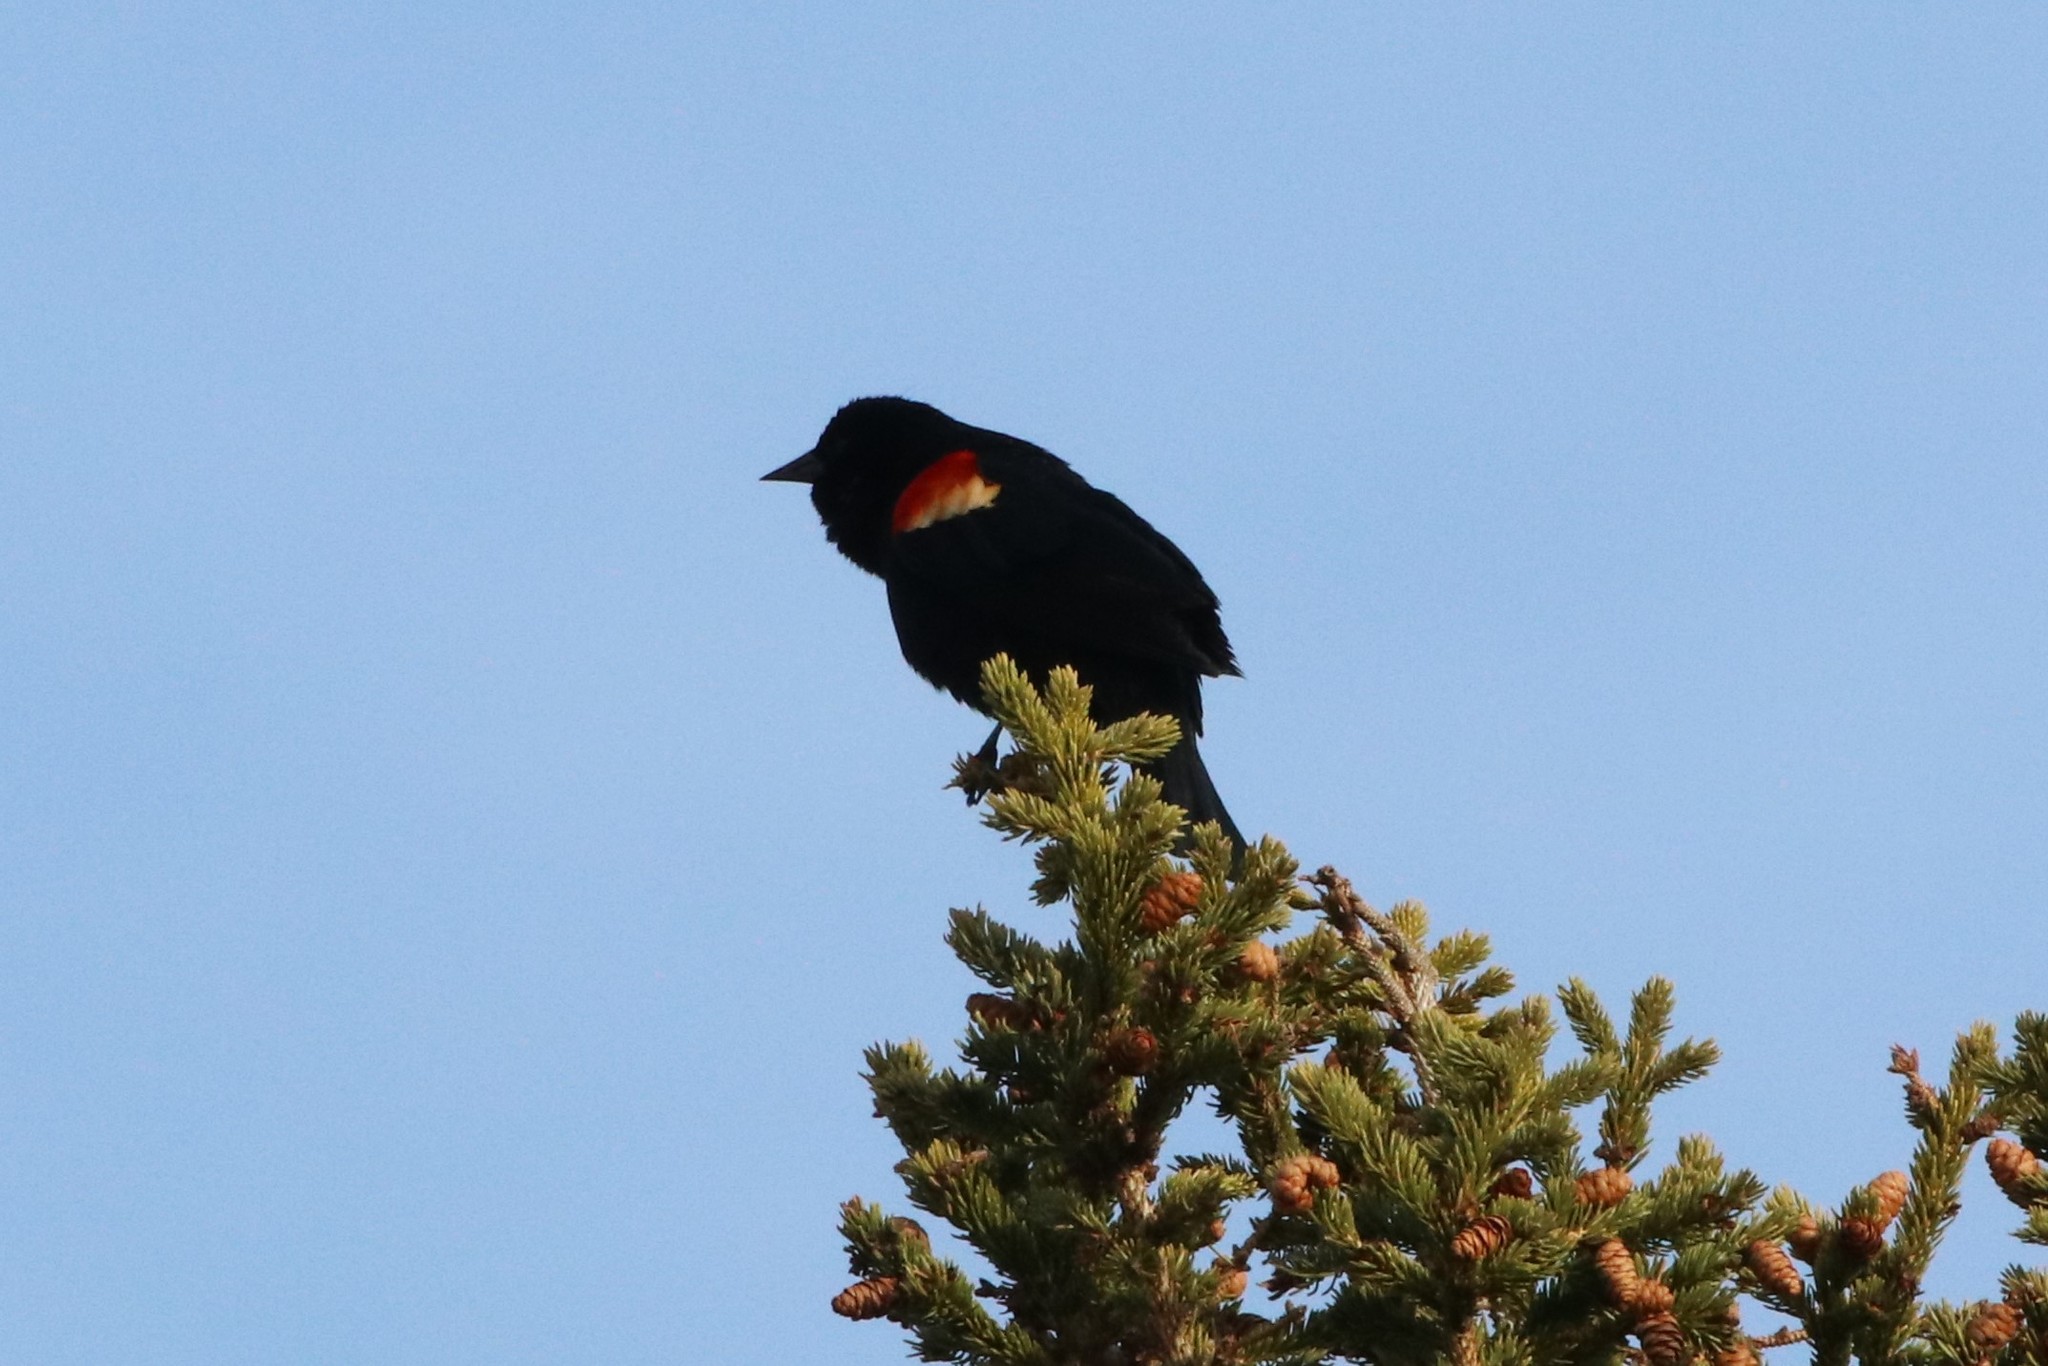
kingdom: Animalia
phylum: Chordata
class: Aves
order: Passeriformes
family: Icteridae
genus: Agelaius
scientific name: Agelaius phoeniceus
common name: Red-winged blackbird
